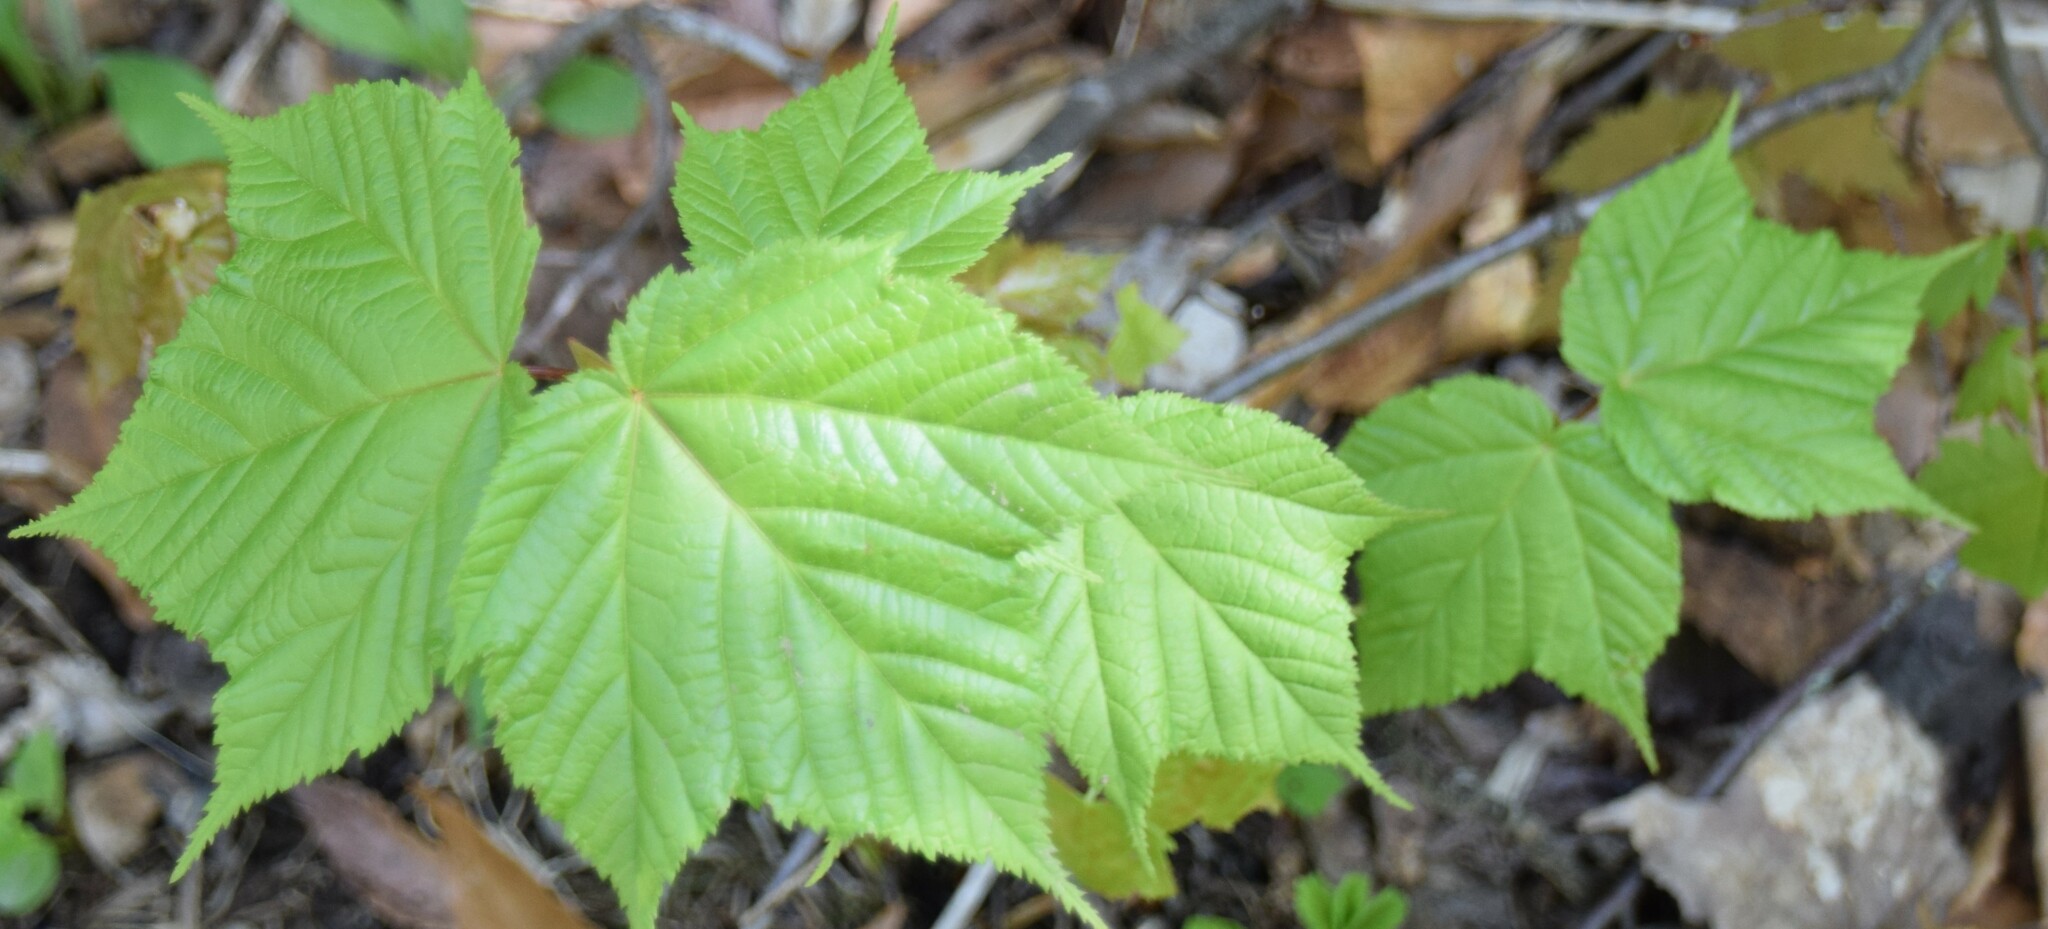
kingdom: Plantae
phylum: Tracheophyta
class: Magnoliopsida
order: Sapindales
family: Sapindaceae
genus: Acer
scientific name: Acer pensylvanicum
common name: Moosewood
